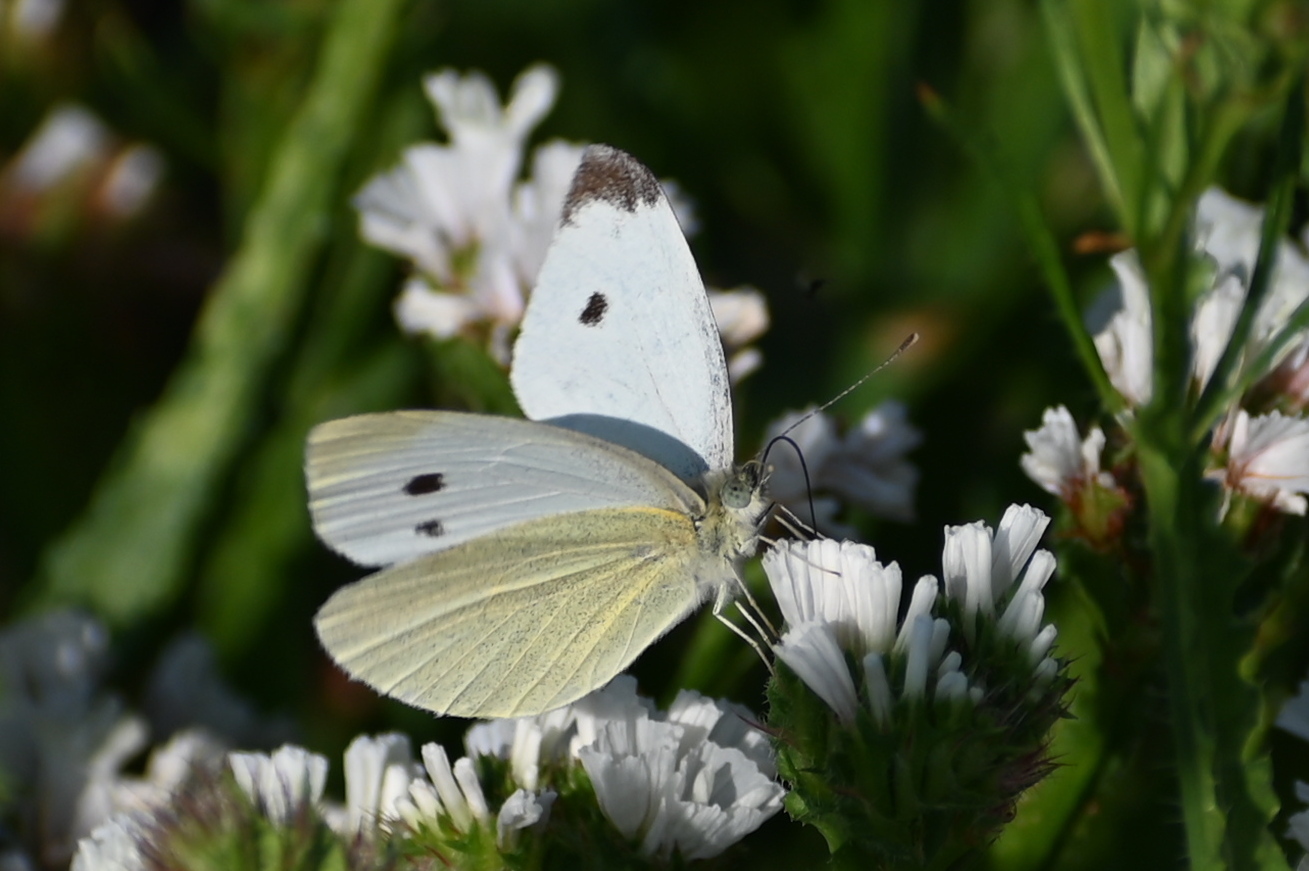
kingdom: Animalia
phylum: Arthropoda
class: Insecta
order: Lepidoptera
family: Pieridae
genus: Pieris
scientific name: Pieris rapae
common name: Small white
